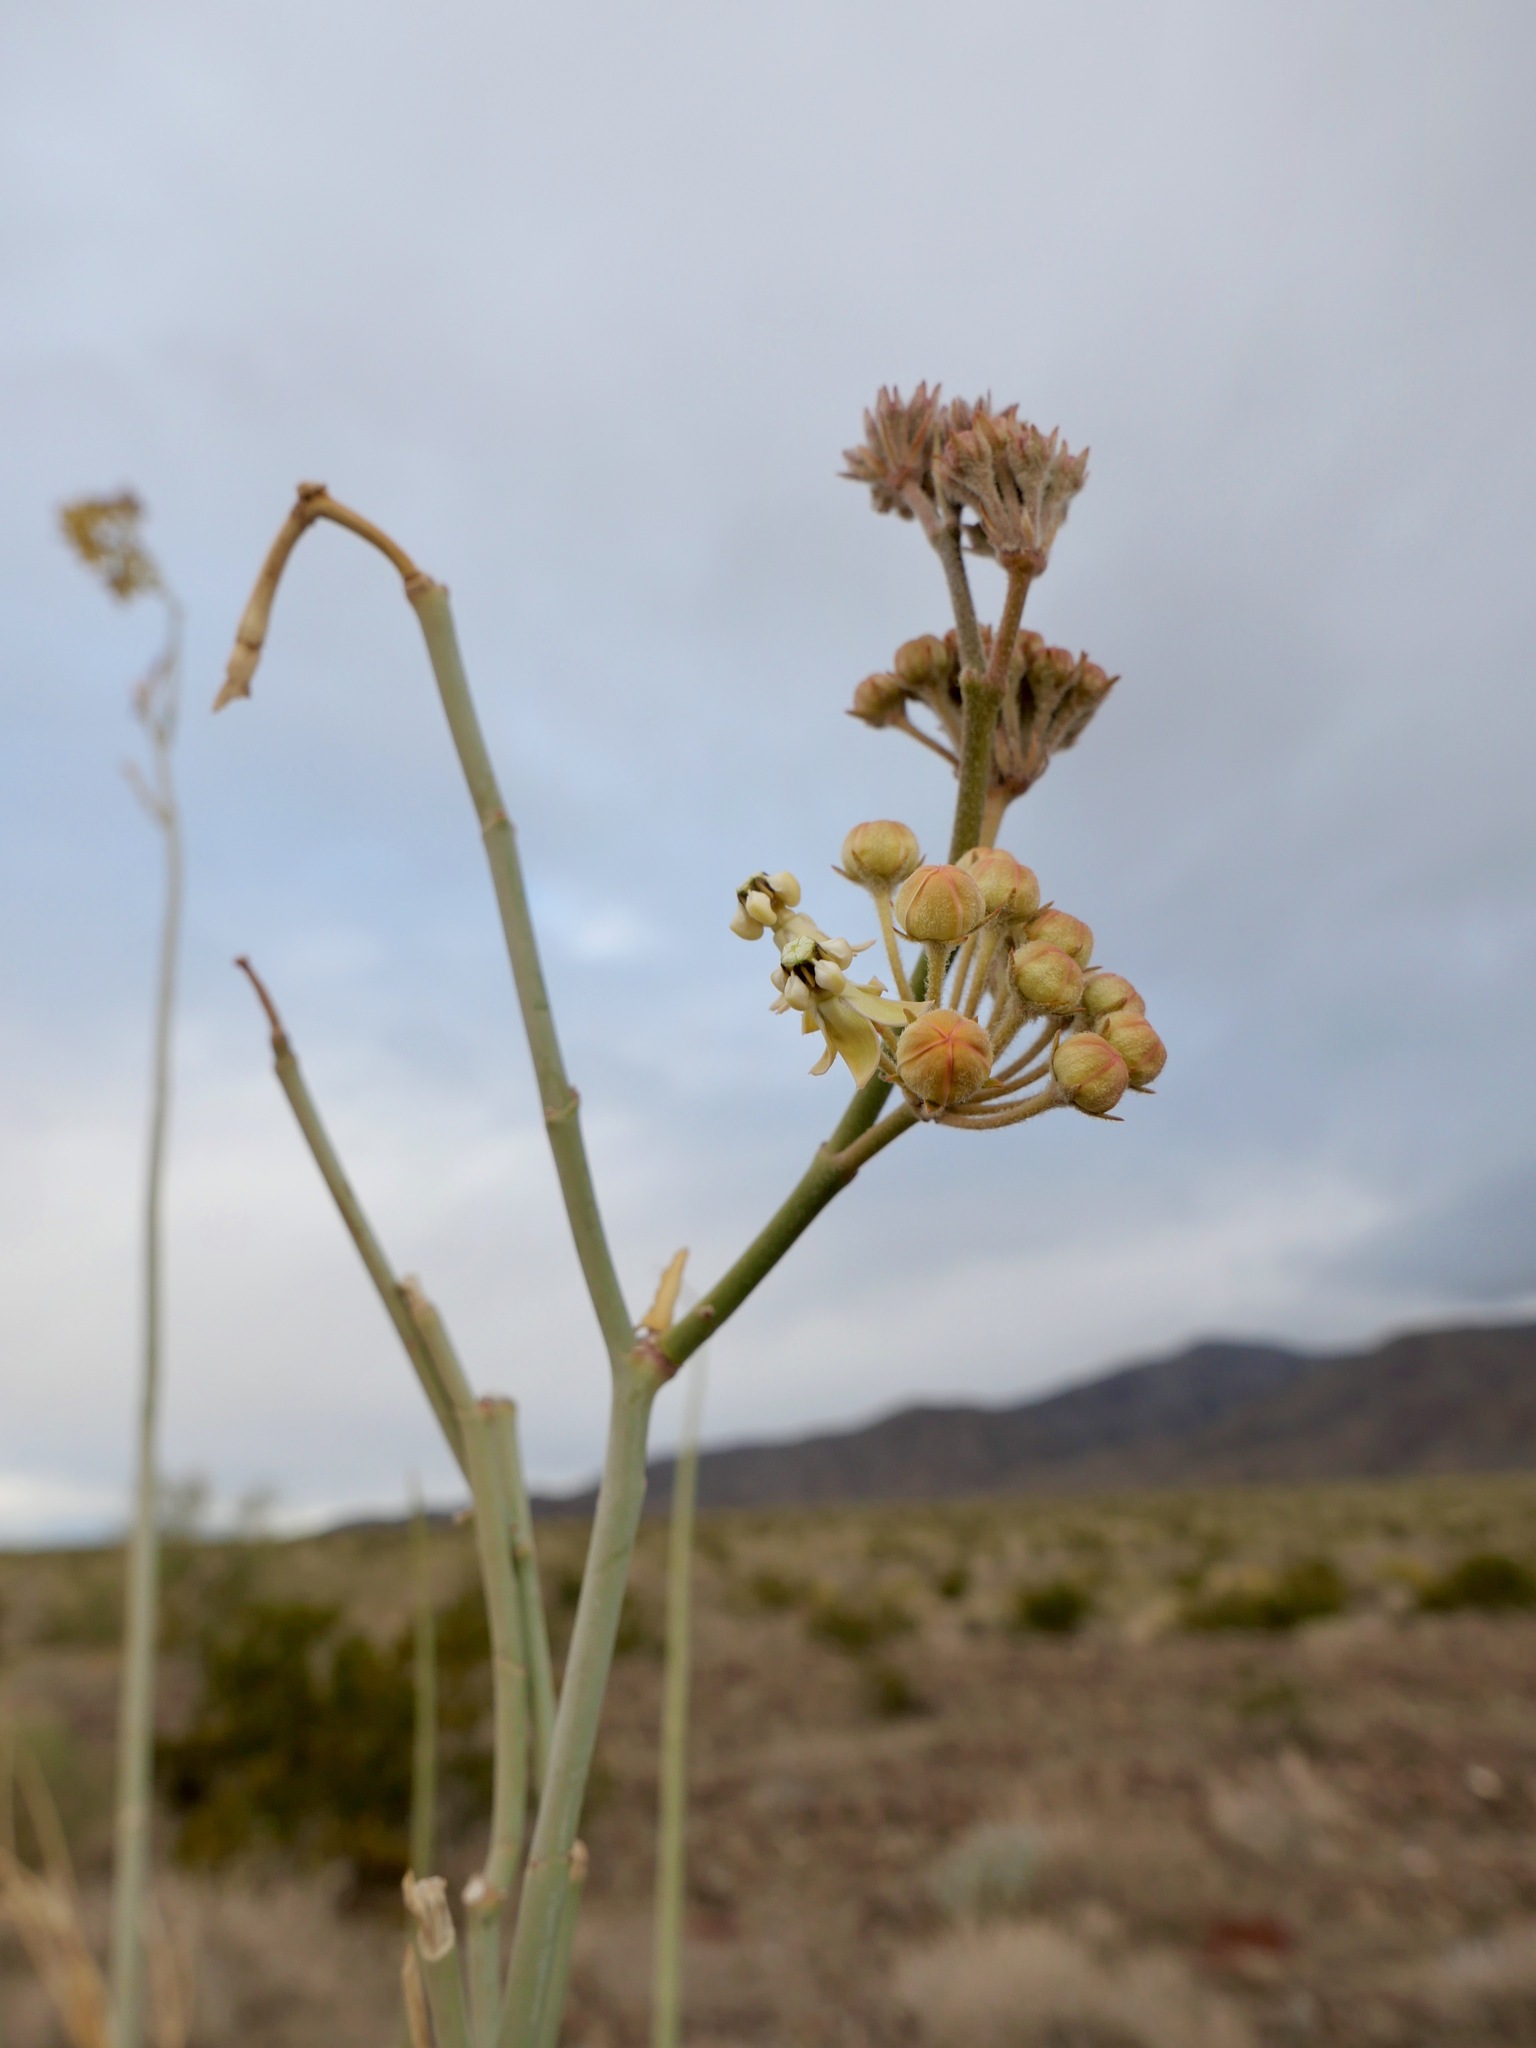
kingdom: Plantae
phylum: Tracheophyta
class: Magnoliopsida
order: Gentianales
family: Apocynaceae
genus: Asclepias
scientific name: Asclepias albicans
